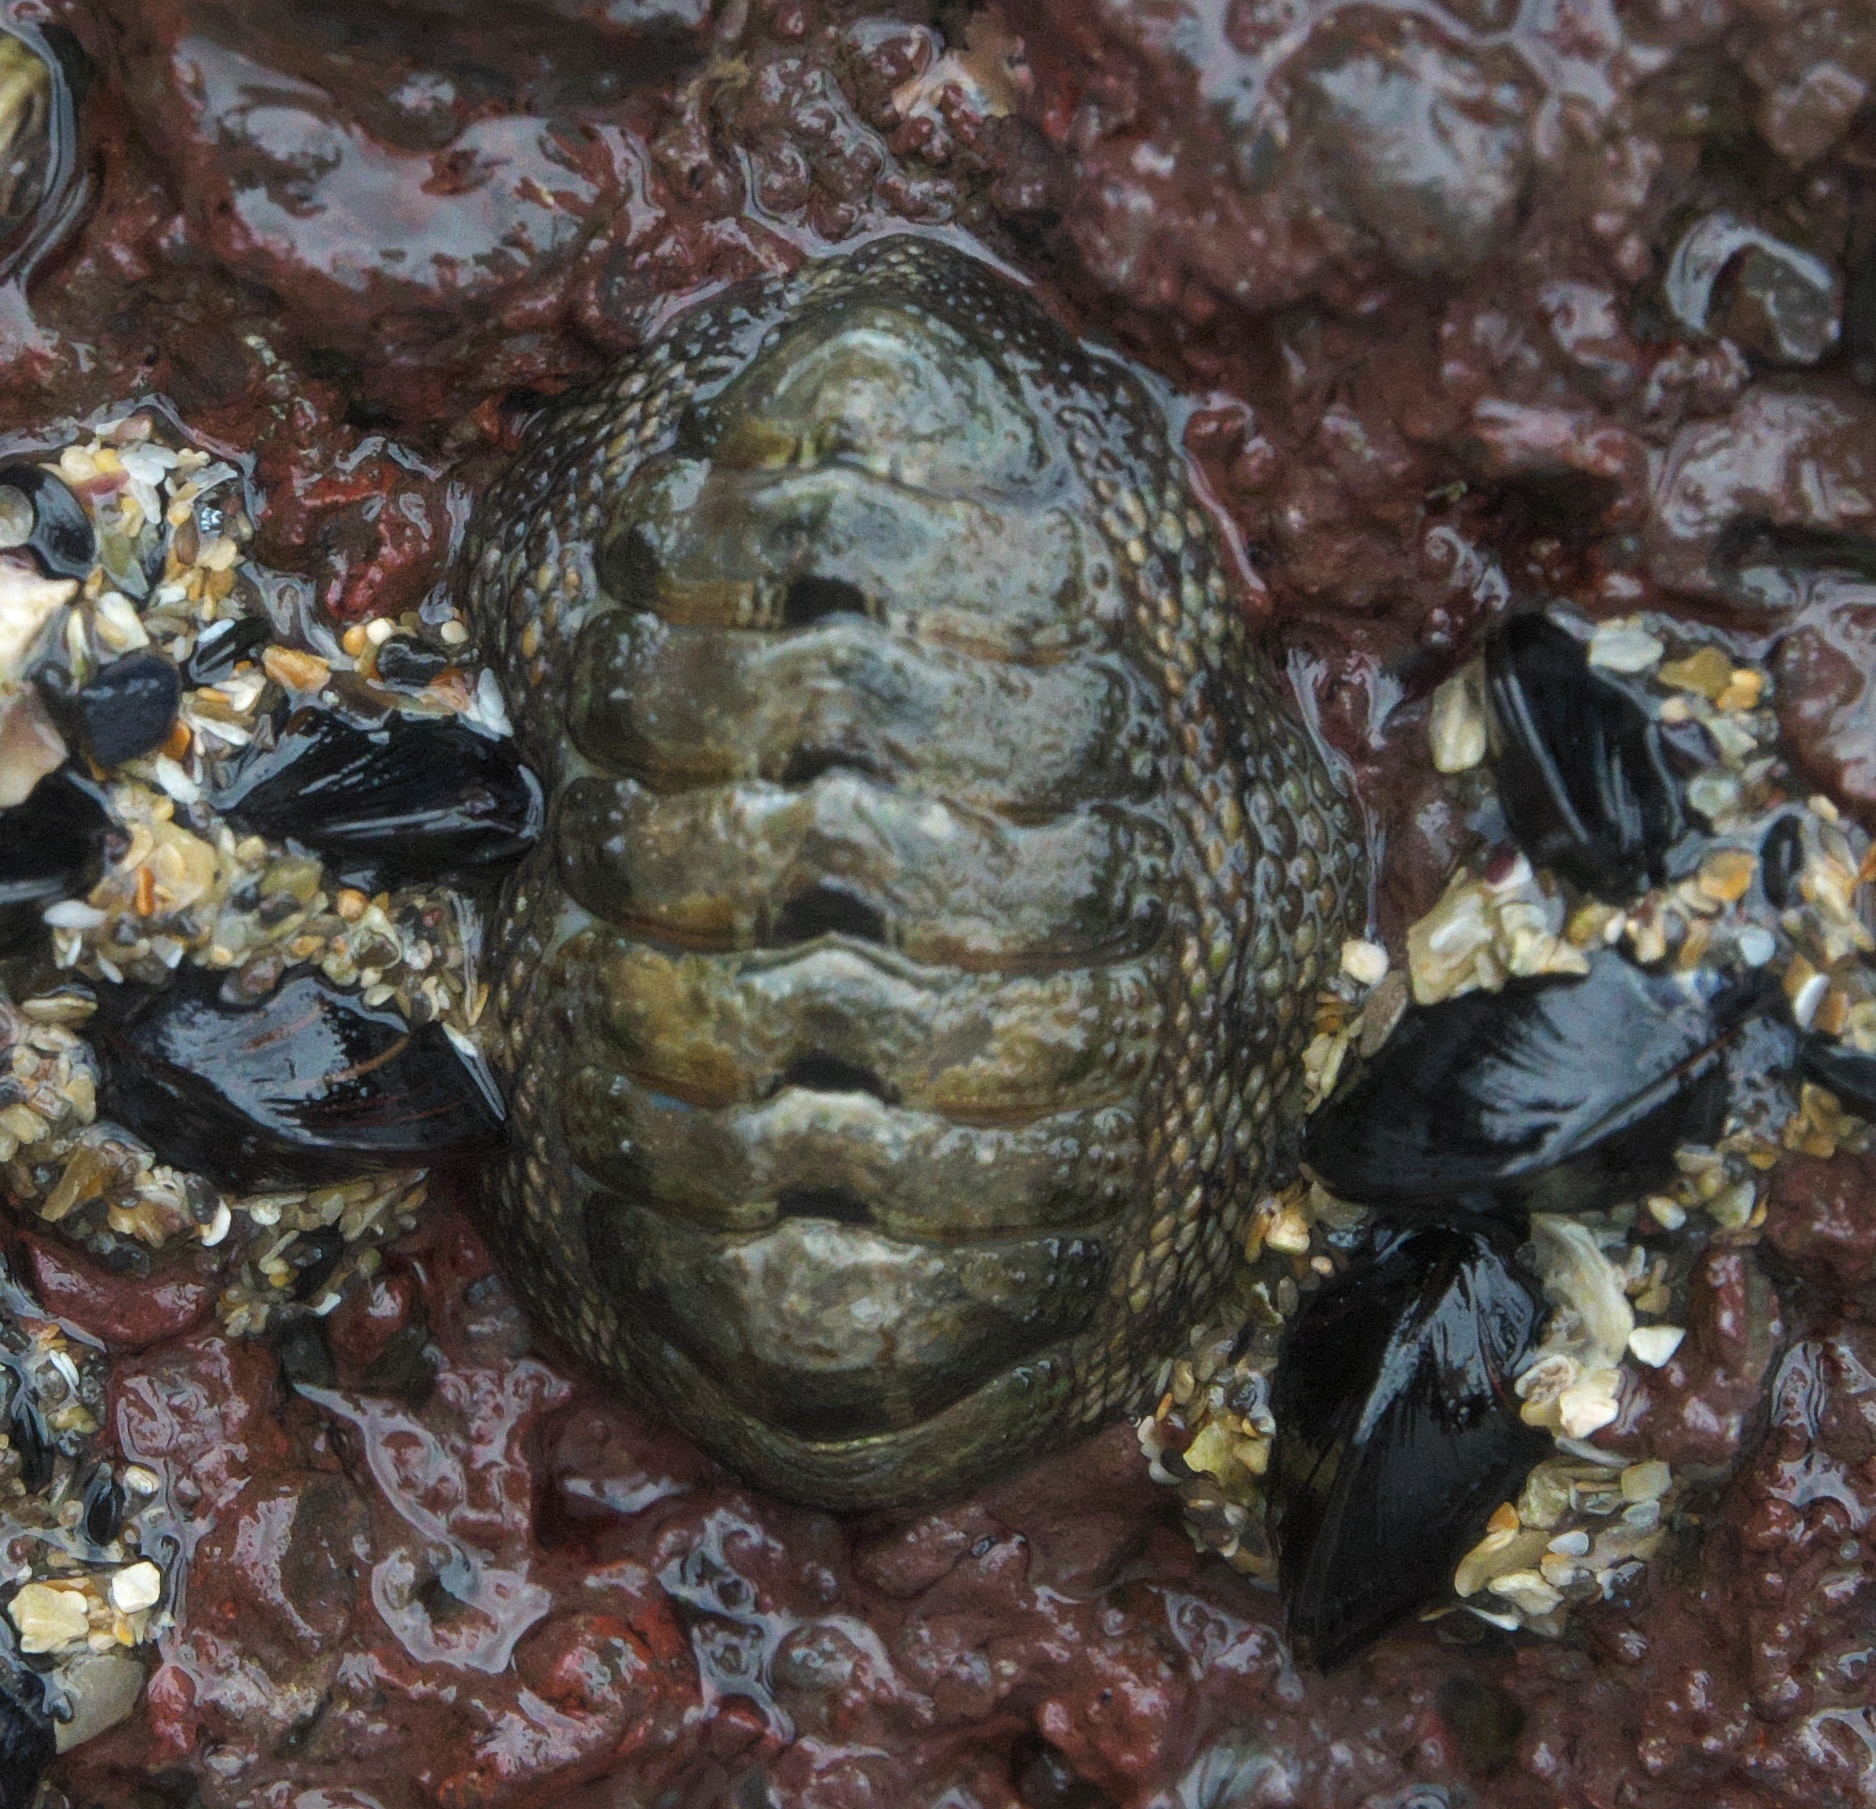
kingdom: Animalia
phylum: Mollusca
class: Polyplacophora
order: Chitonida
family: Chitonidae
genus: Sypharochiton
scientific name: Sypharochiton pelliserpentis
